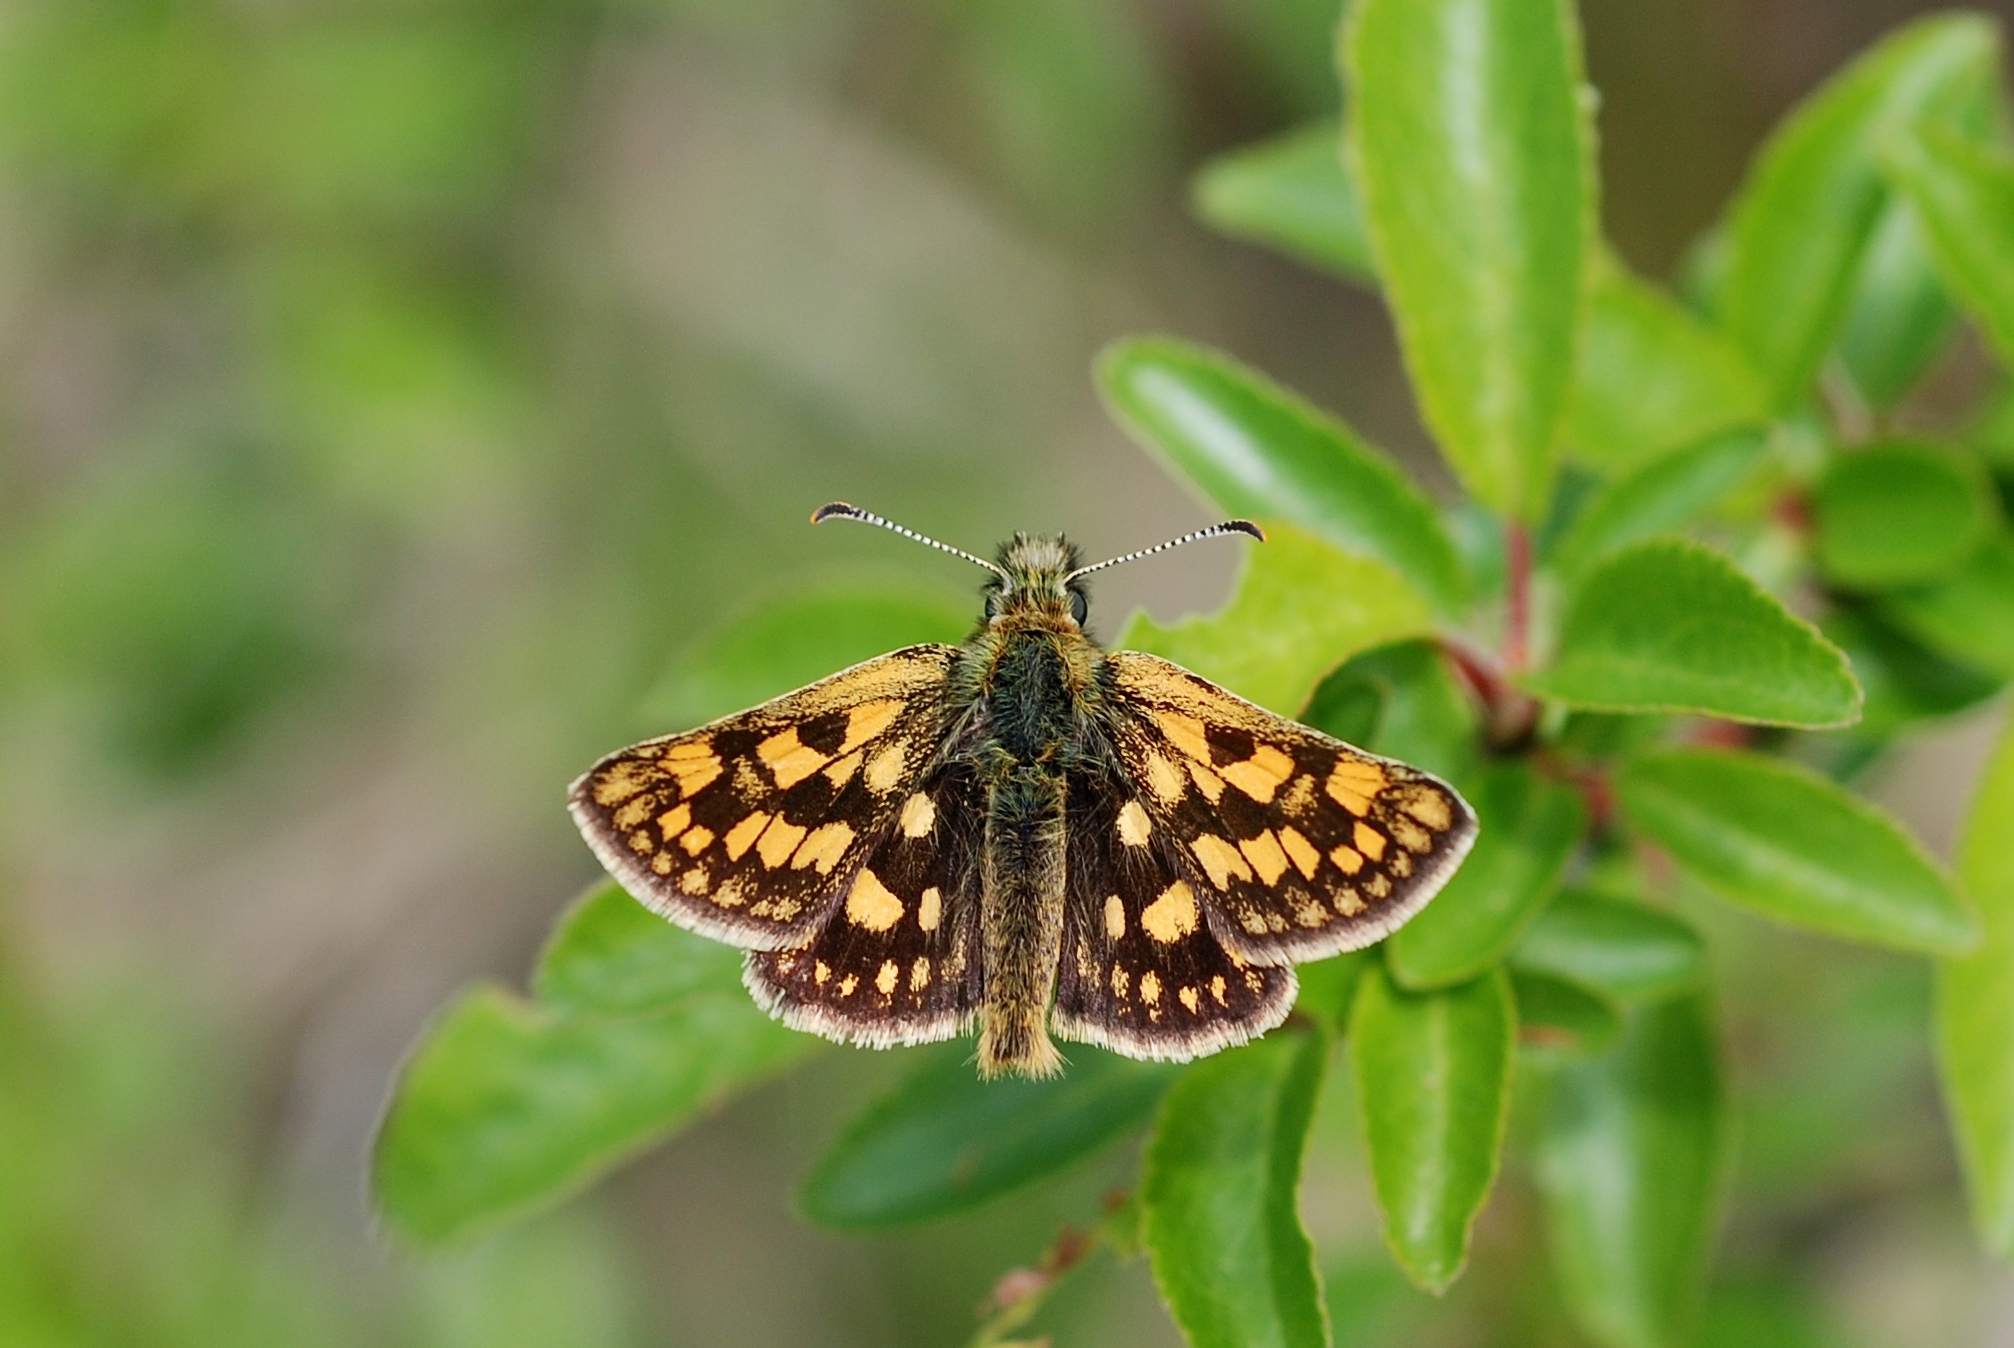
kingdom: Animalia
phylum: Arthropoda
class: Insecta
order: Lepidoptera
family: Hesperiidae
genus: Carterocephalus
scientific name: Carterocephalus palaemon
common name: Chequered skipper
